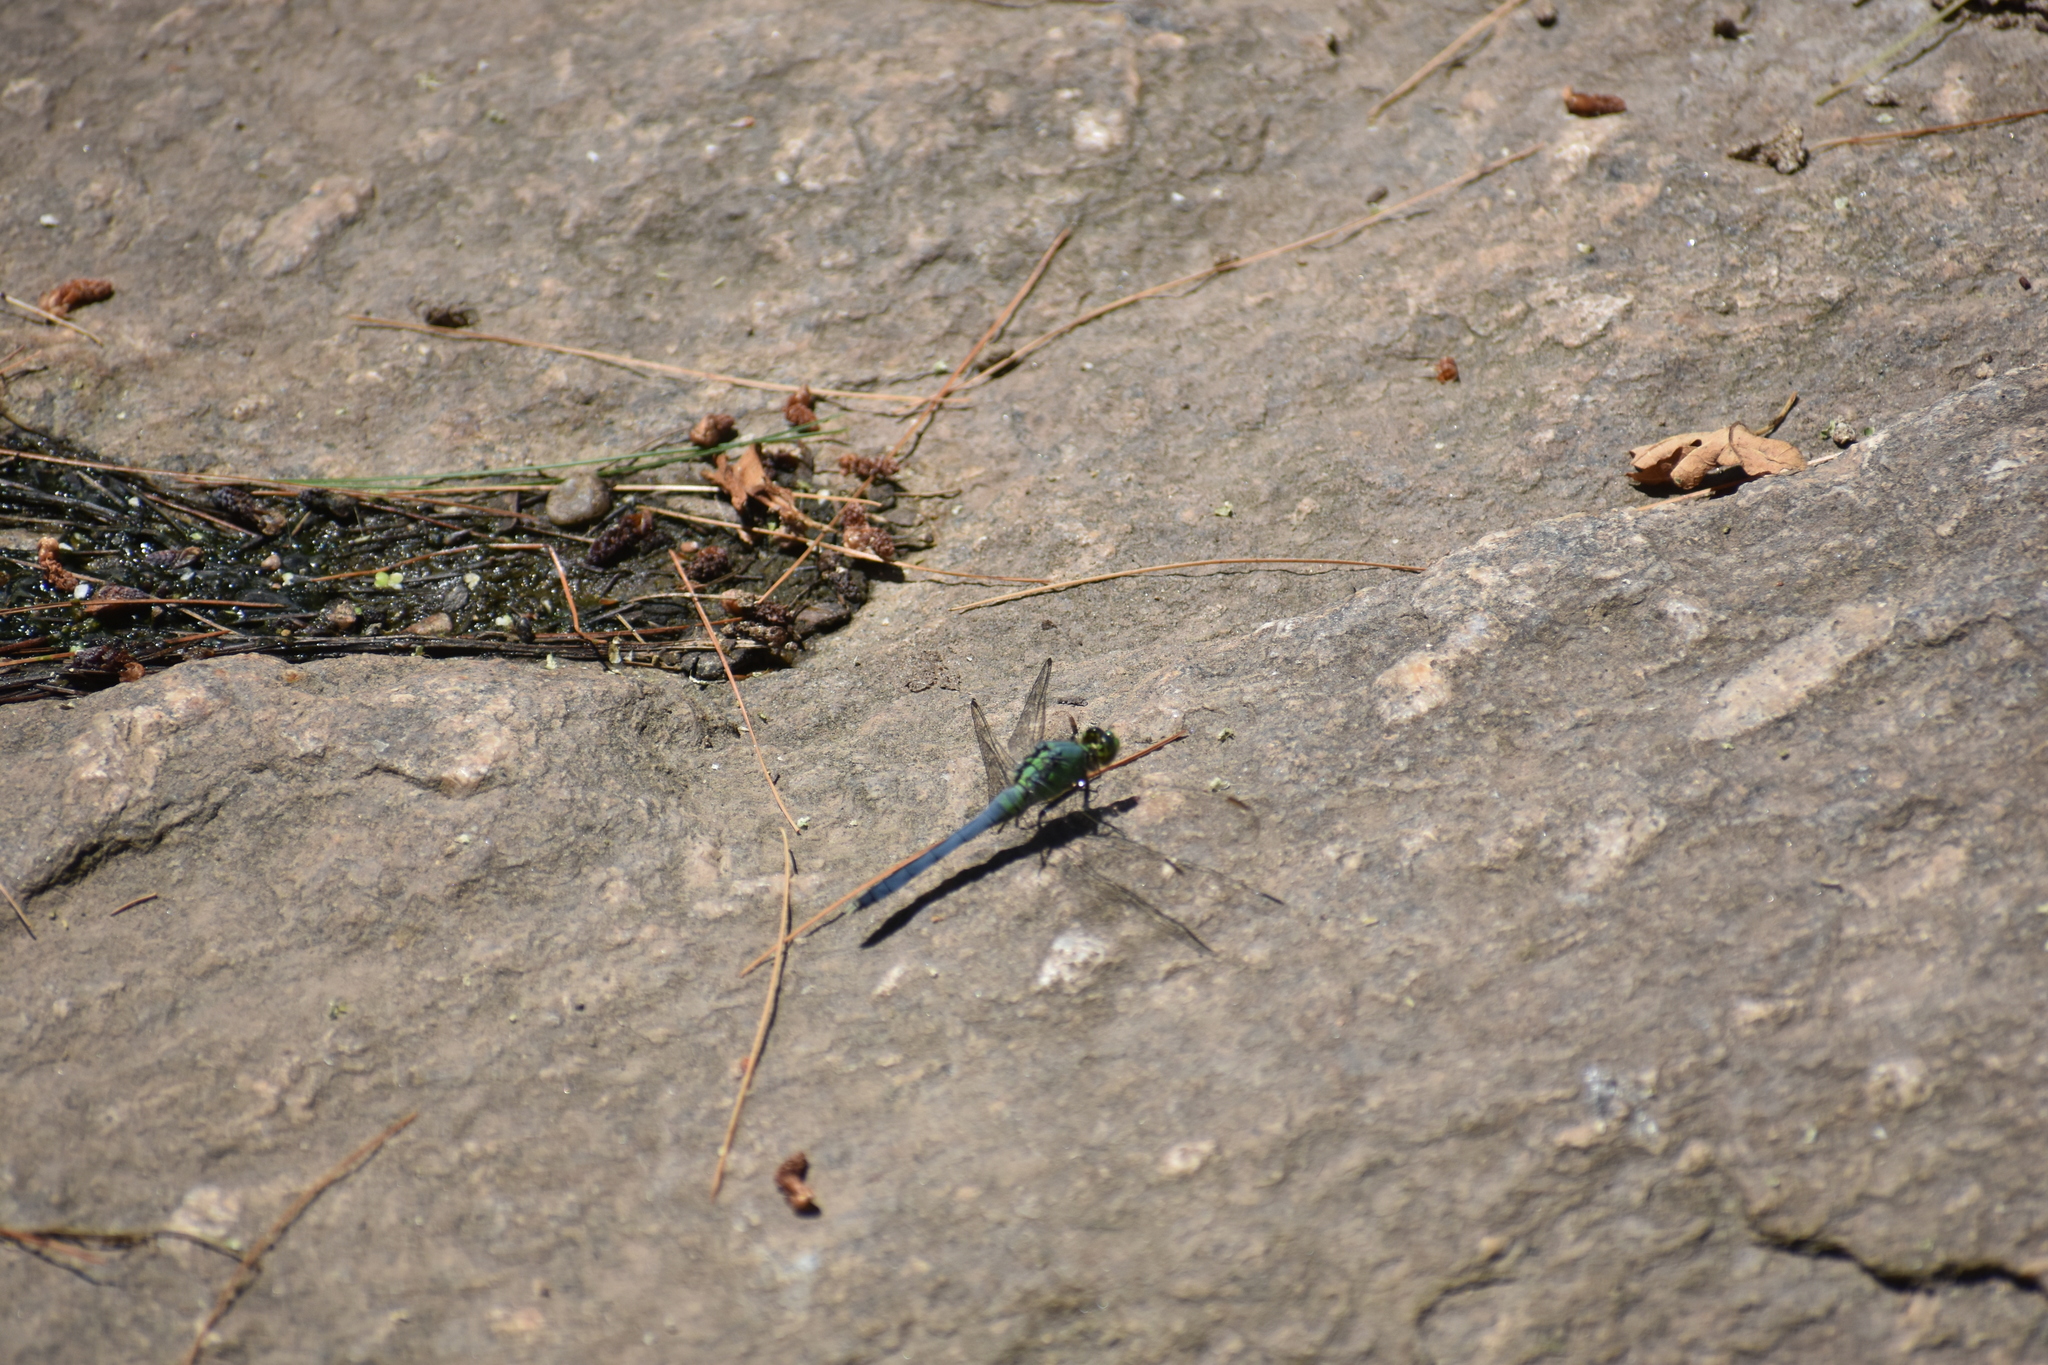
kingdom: Animalia
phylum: Arthropoda
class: Insecta
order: Odonata
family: Libellulidae
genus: Erythemis
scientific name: Erythemis simplicicollis
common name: Eastern pondhawk
